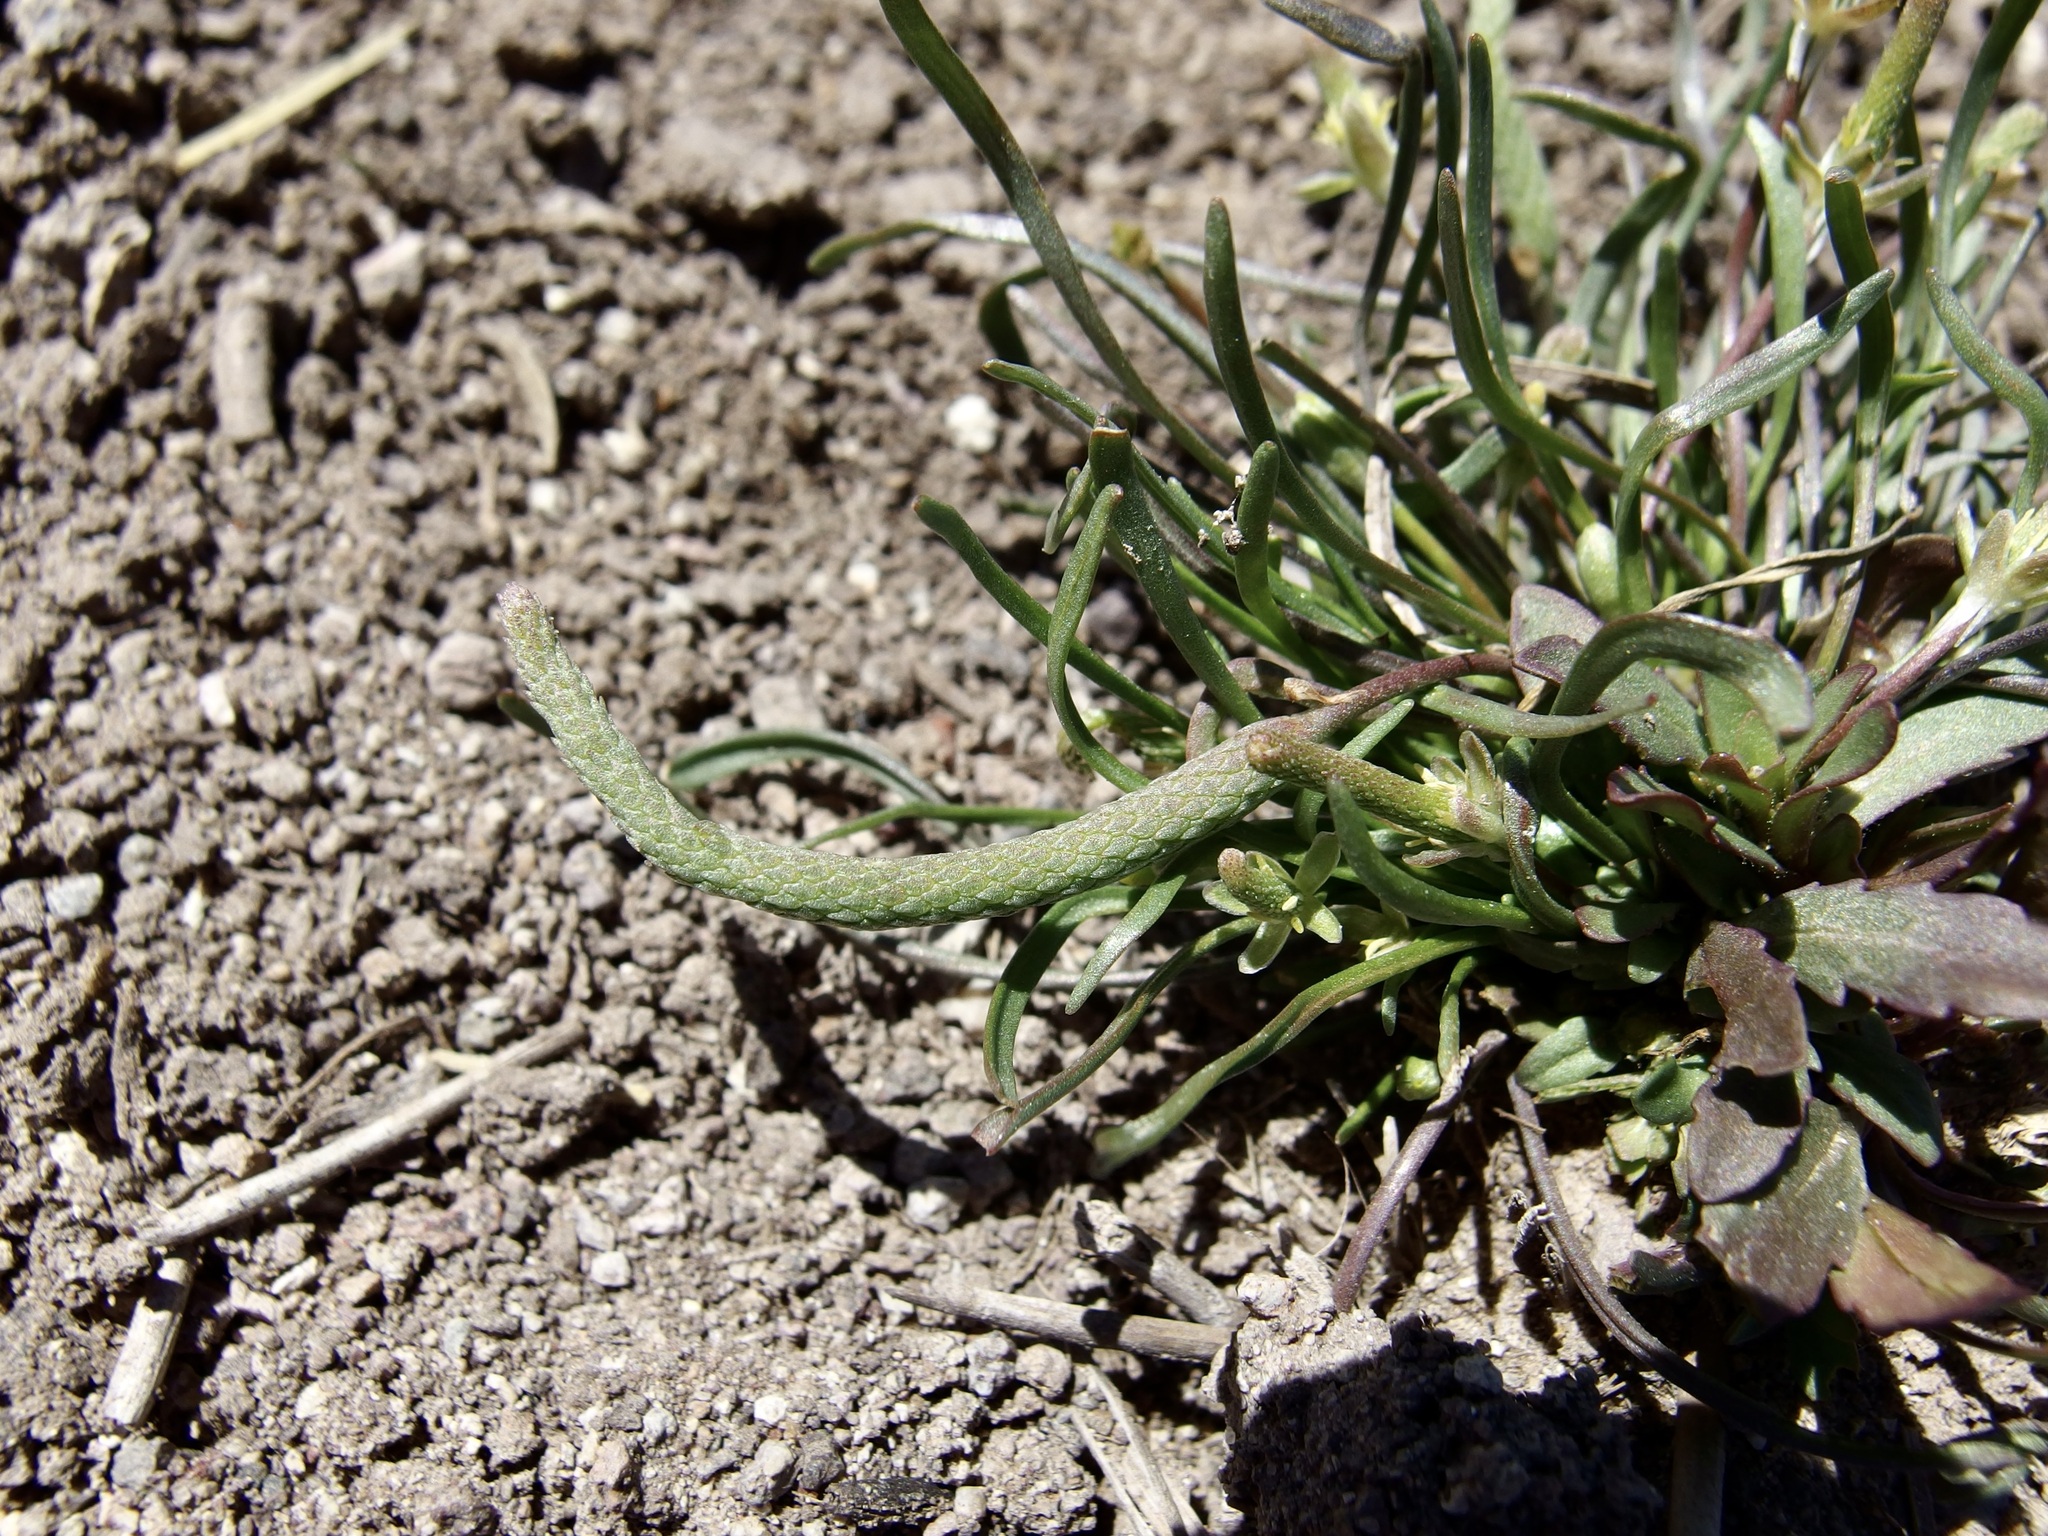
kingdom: Plantae
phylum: Tracheophyta
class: Magnoliopsida
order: Ranunculales
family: Ranunculaceae
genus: Myosurus
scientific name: Myosurus minimus
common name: Mousetail
